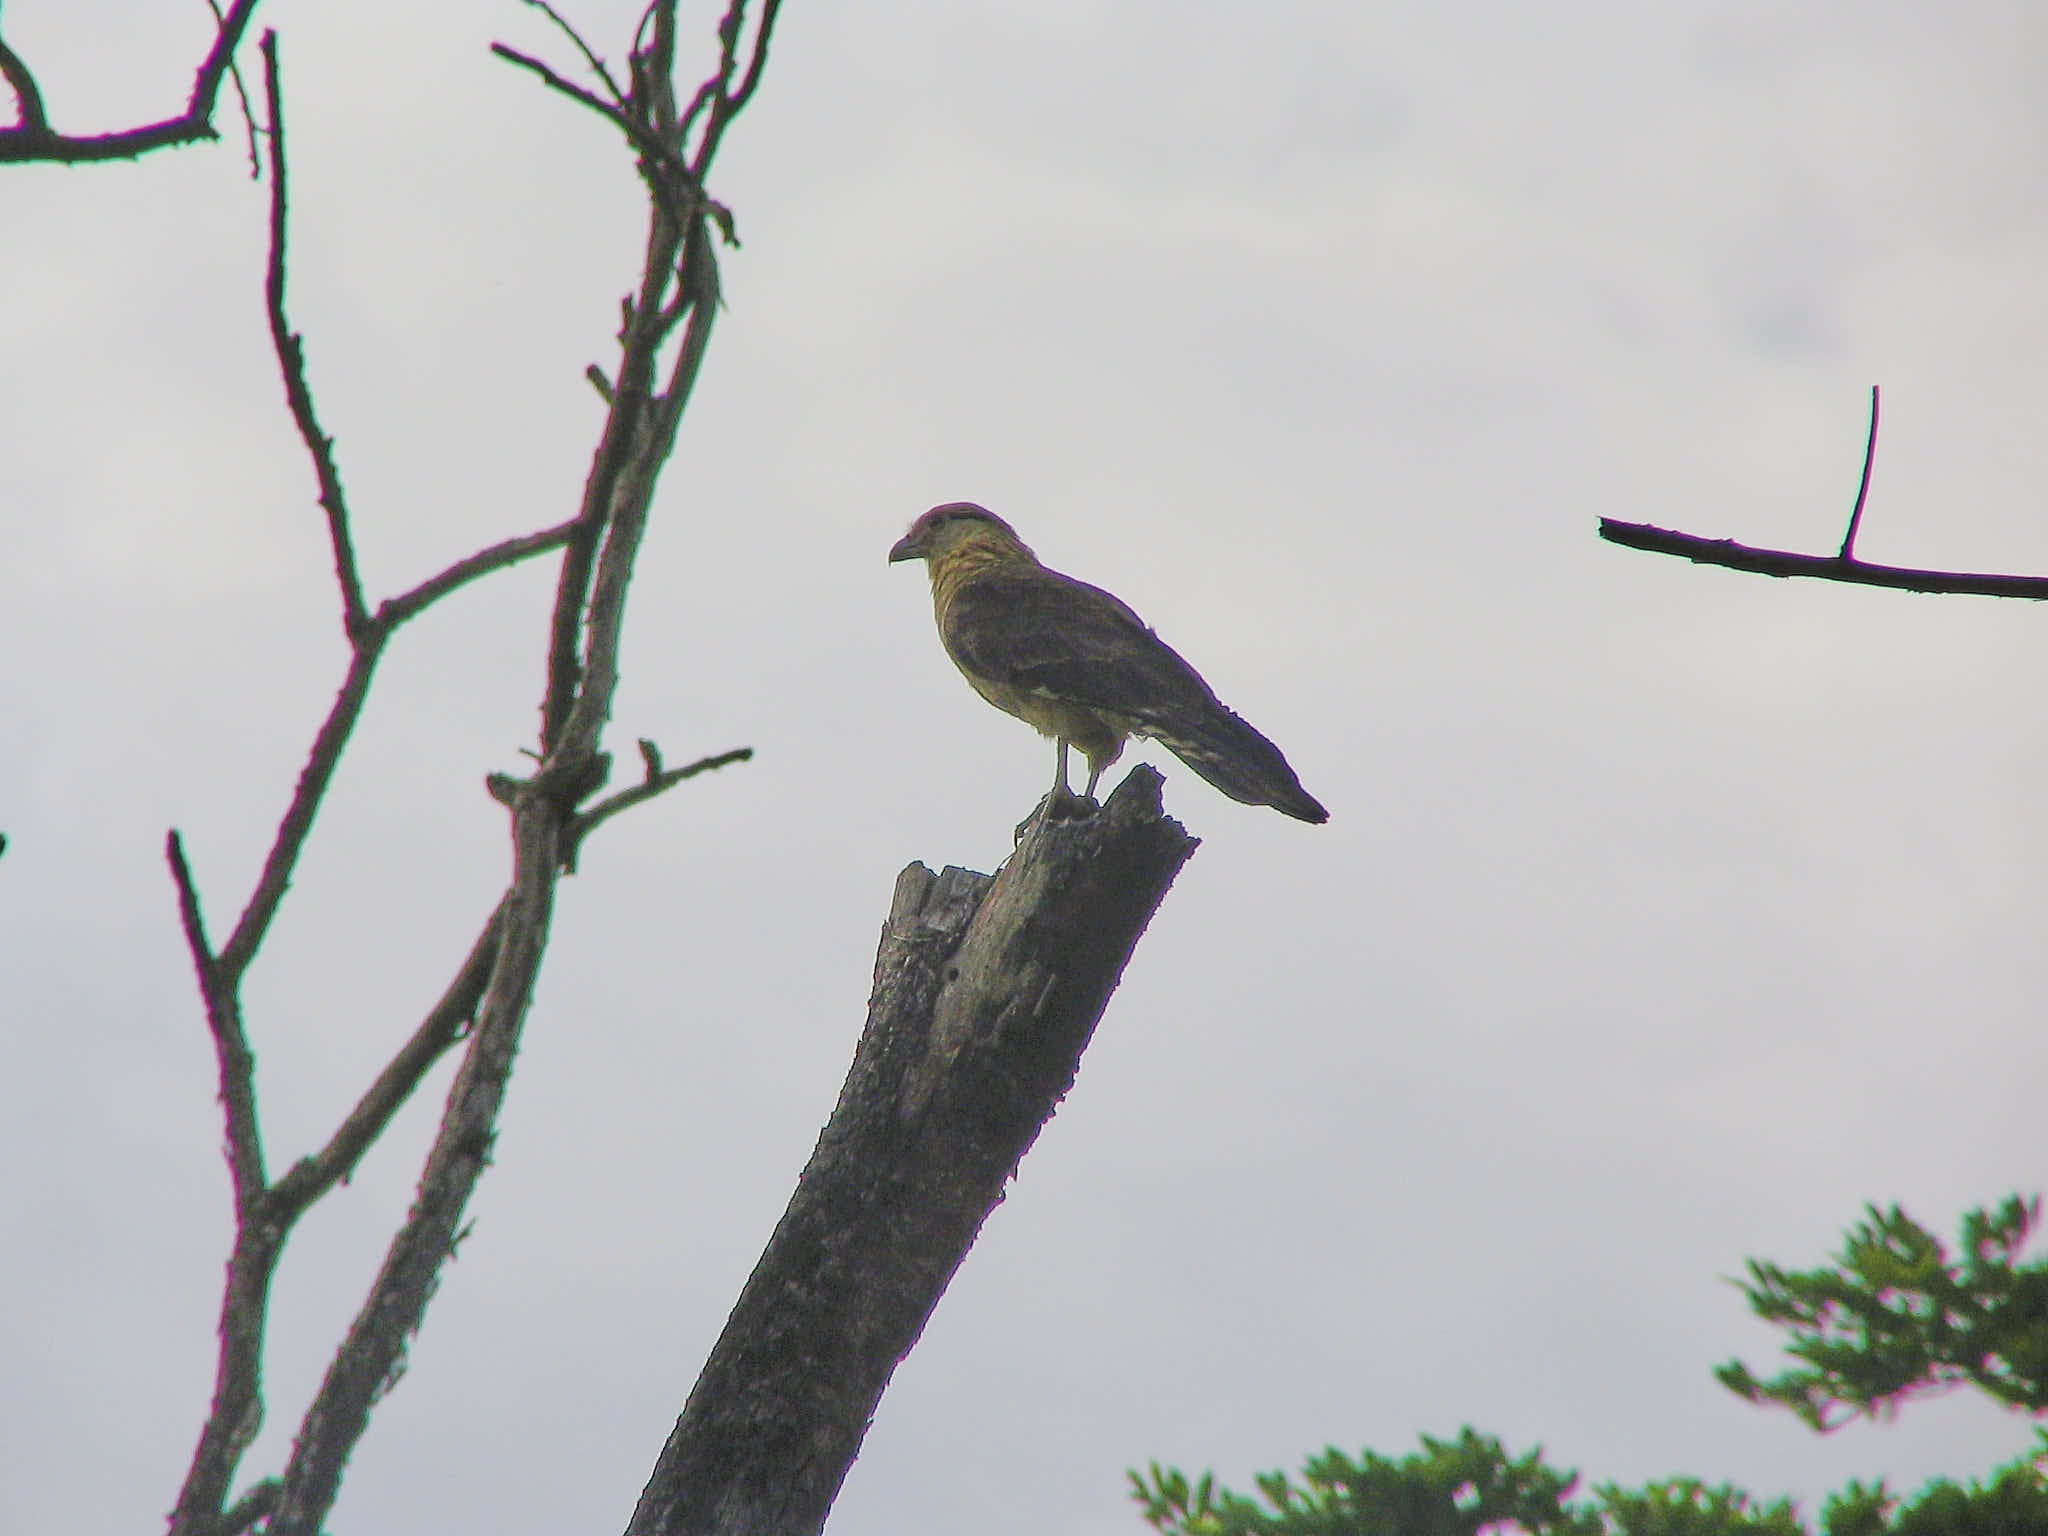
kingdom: Animalia
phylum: Chordata
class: Aves
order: Falconiformes
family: Falconidae
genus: Daptrius
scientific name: Daptrius
